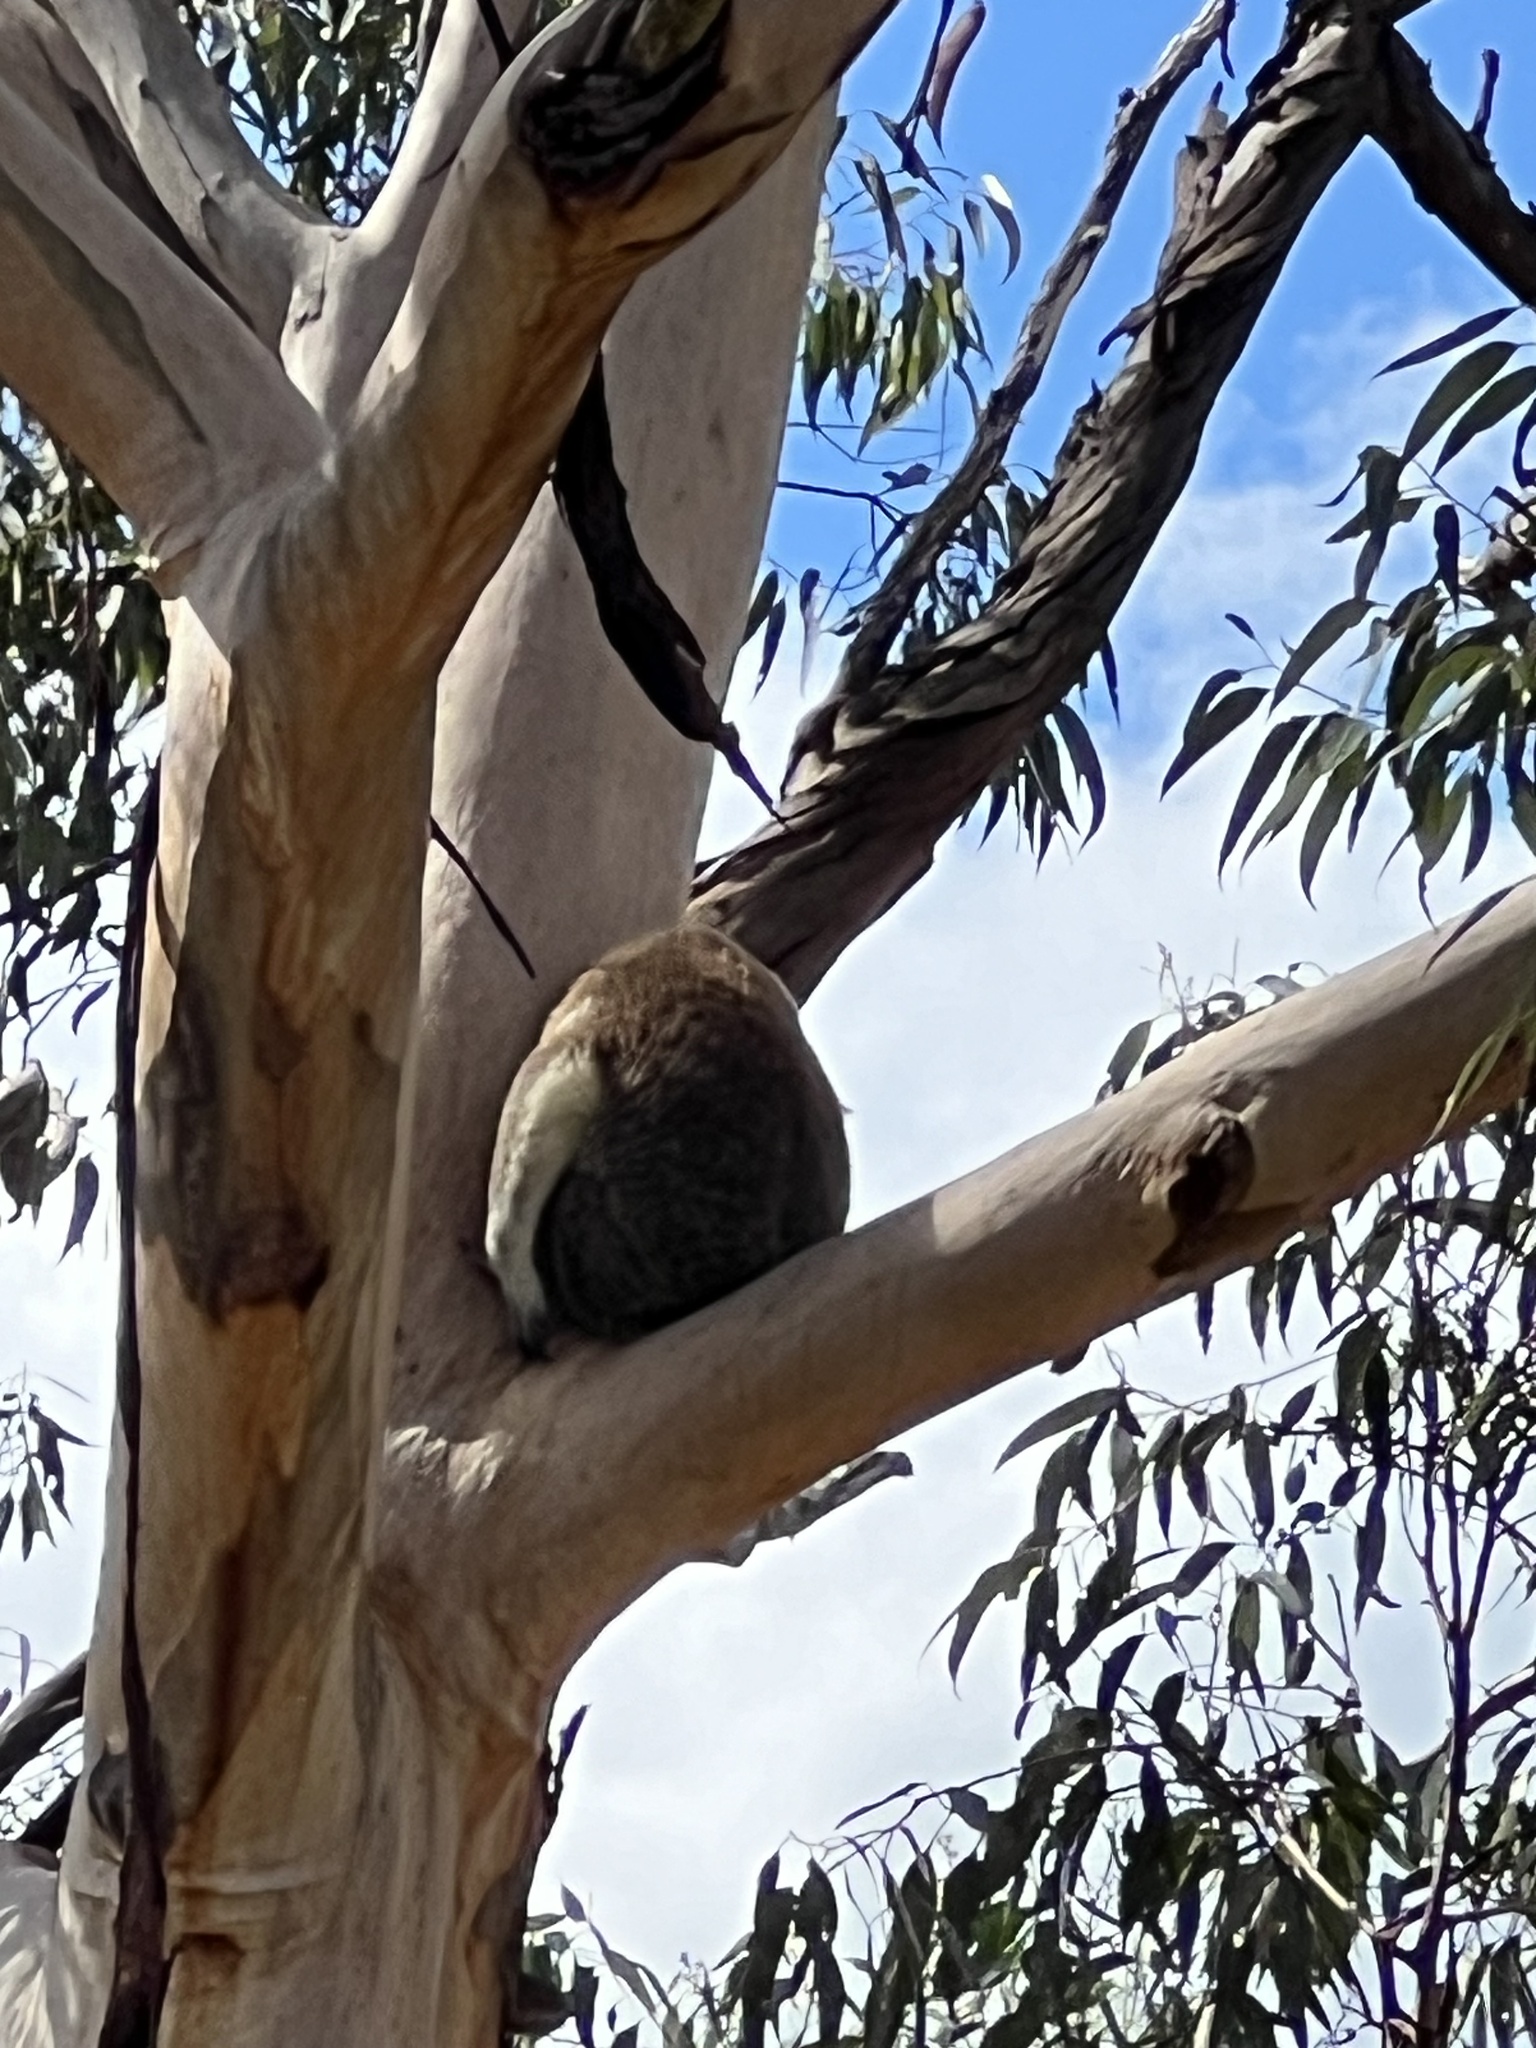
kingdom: Animalia
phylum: Chordata
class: Mammalia
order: Diprotodontia
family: Phascolarctidae
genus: Phascolarctos
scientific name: Phascolarctos cinereus
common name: Koala
